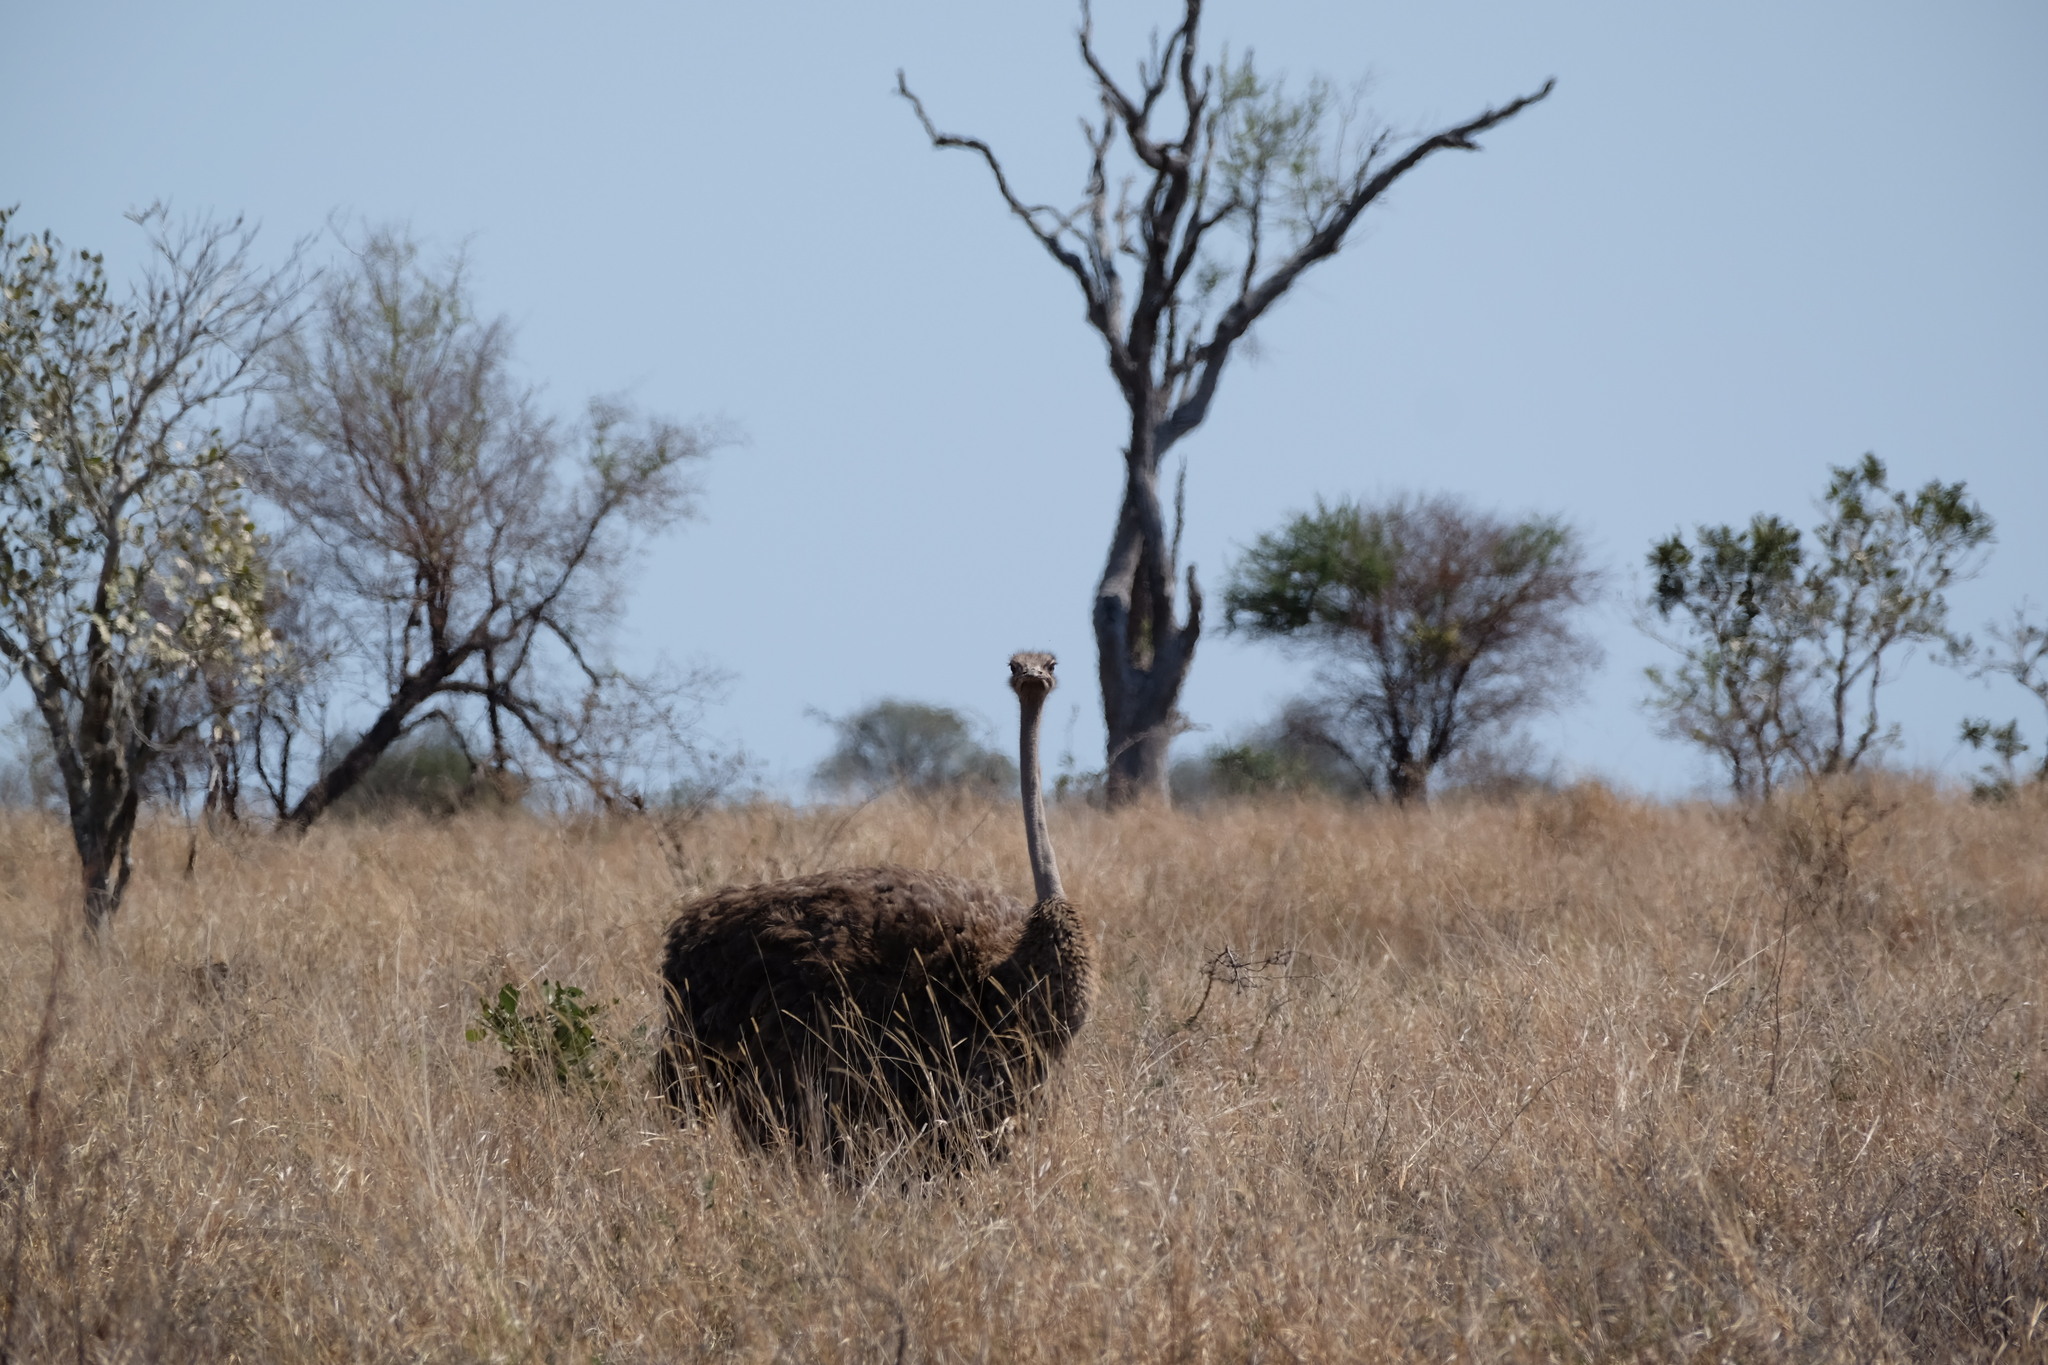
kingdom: Animalia
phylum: Chordata
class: Aves
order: Struthioniformes
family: Struthionidae
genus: Struthio
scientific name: Struthio camelus
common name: Common ostrich
